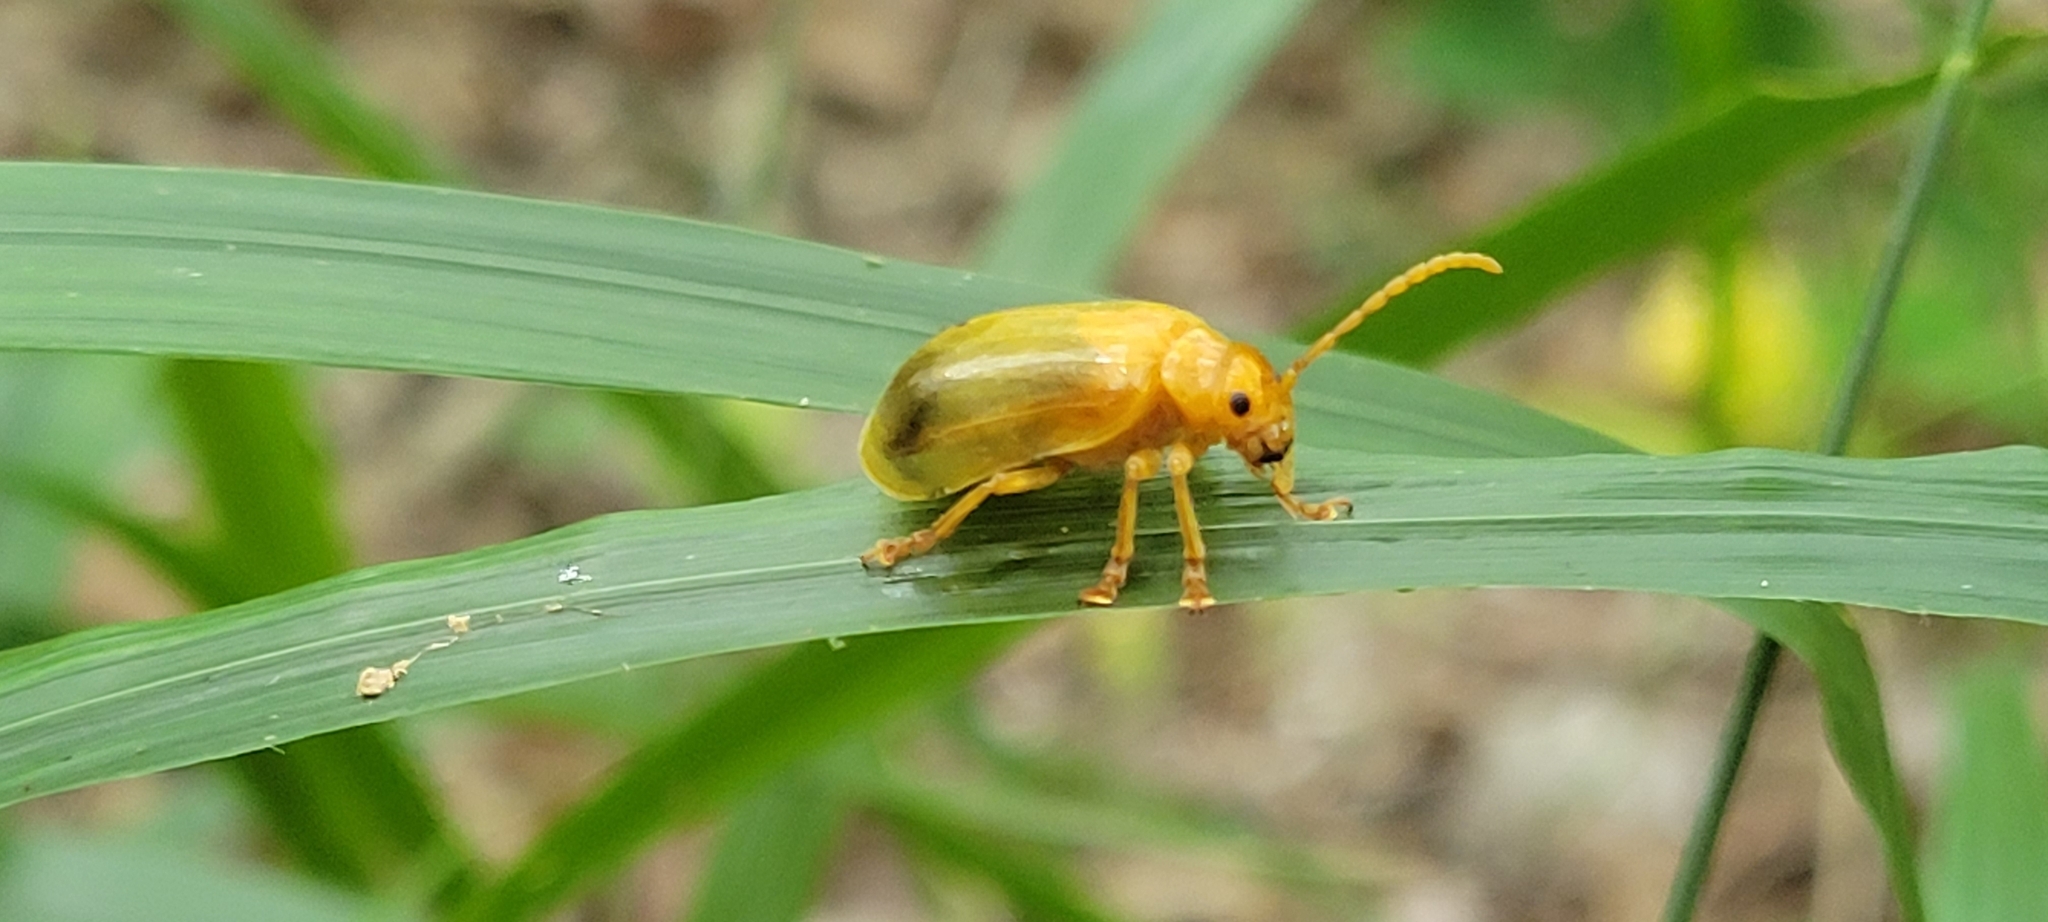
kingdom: Animalia
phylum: Arthropoda
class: Insecta
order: Coleoptera
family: Chrysomelidae
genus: Monocesta
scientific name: Monocesta coryli
